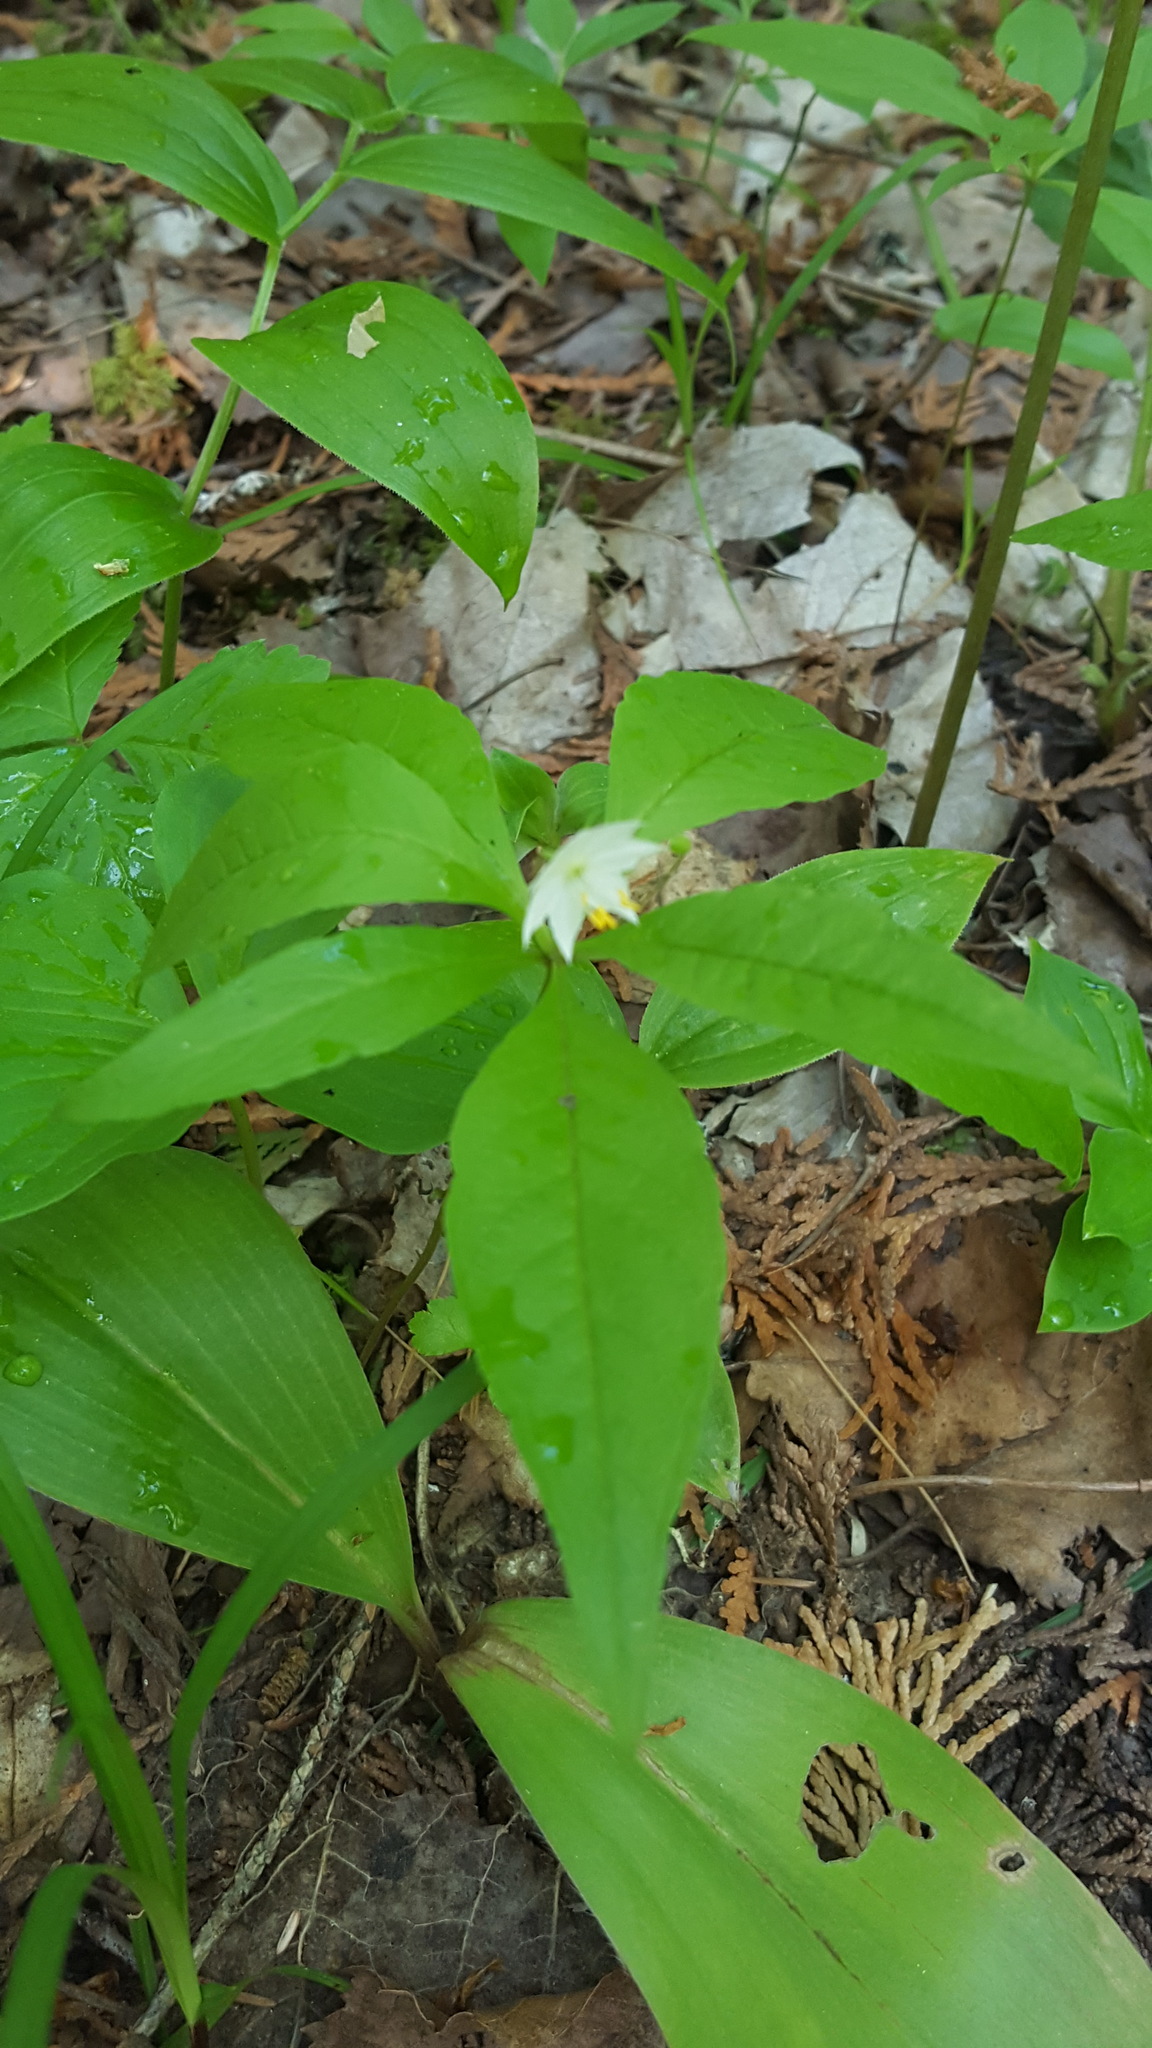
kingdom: Plantae
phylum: Tracheophyta
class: Magnoliopsida
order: Ericales
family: Primulaceae
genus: Lysimachia
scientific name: Lysimachia borealis
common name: American starflower
